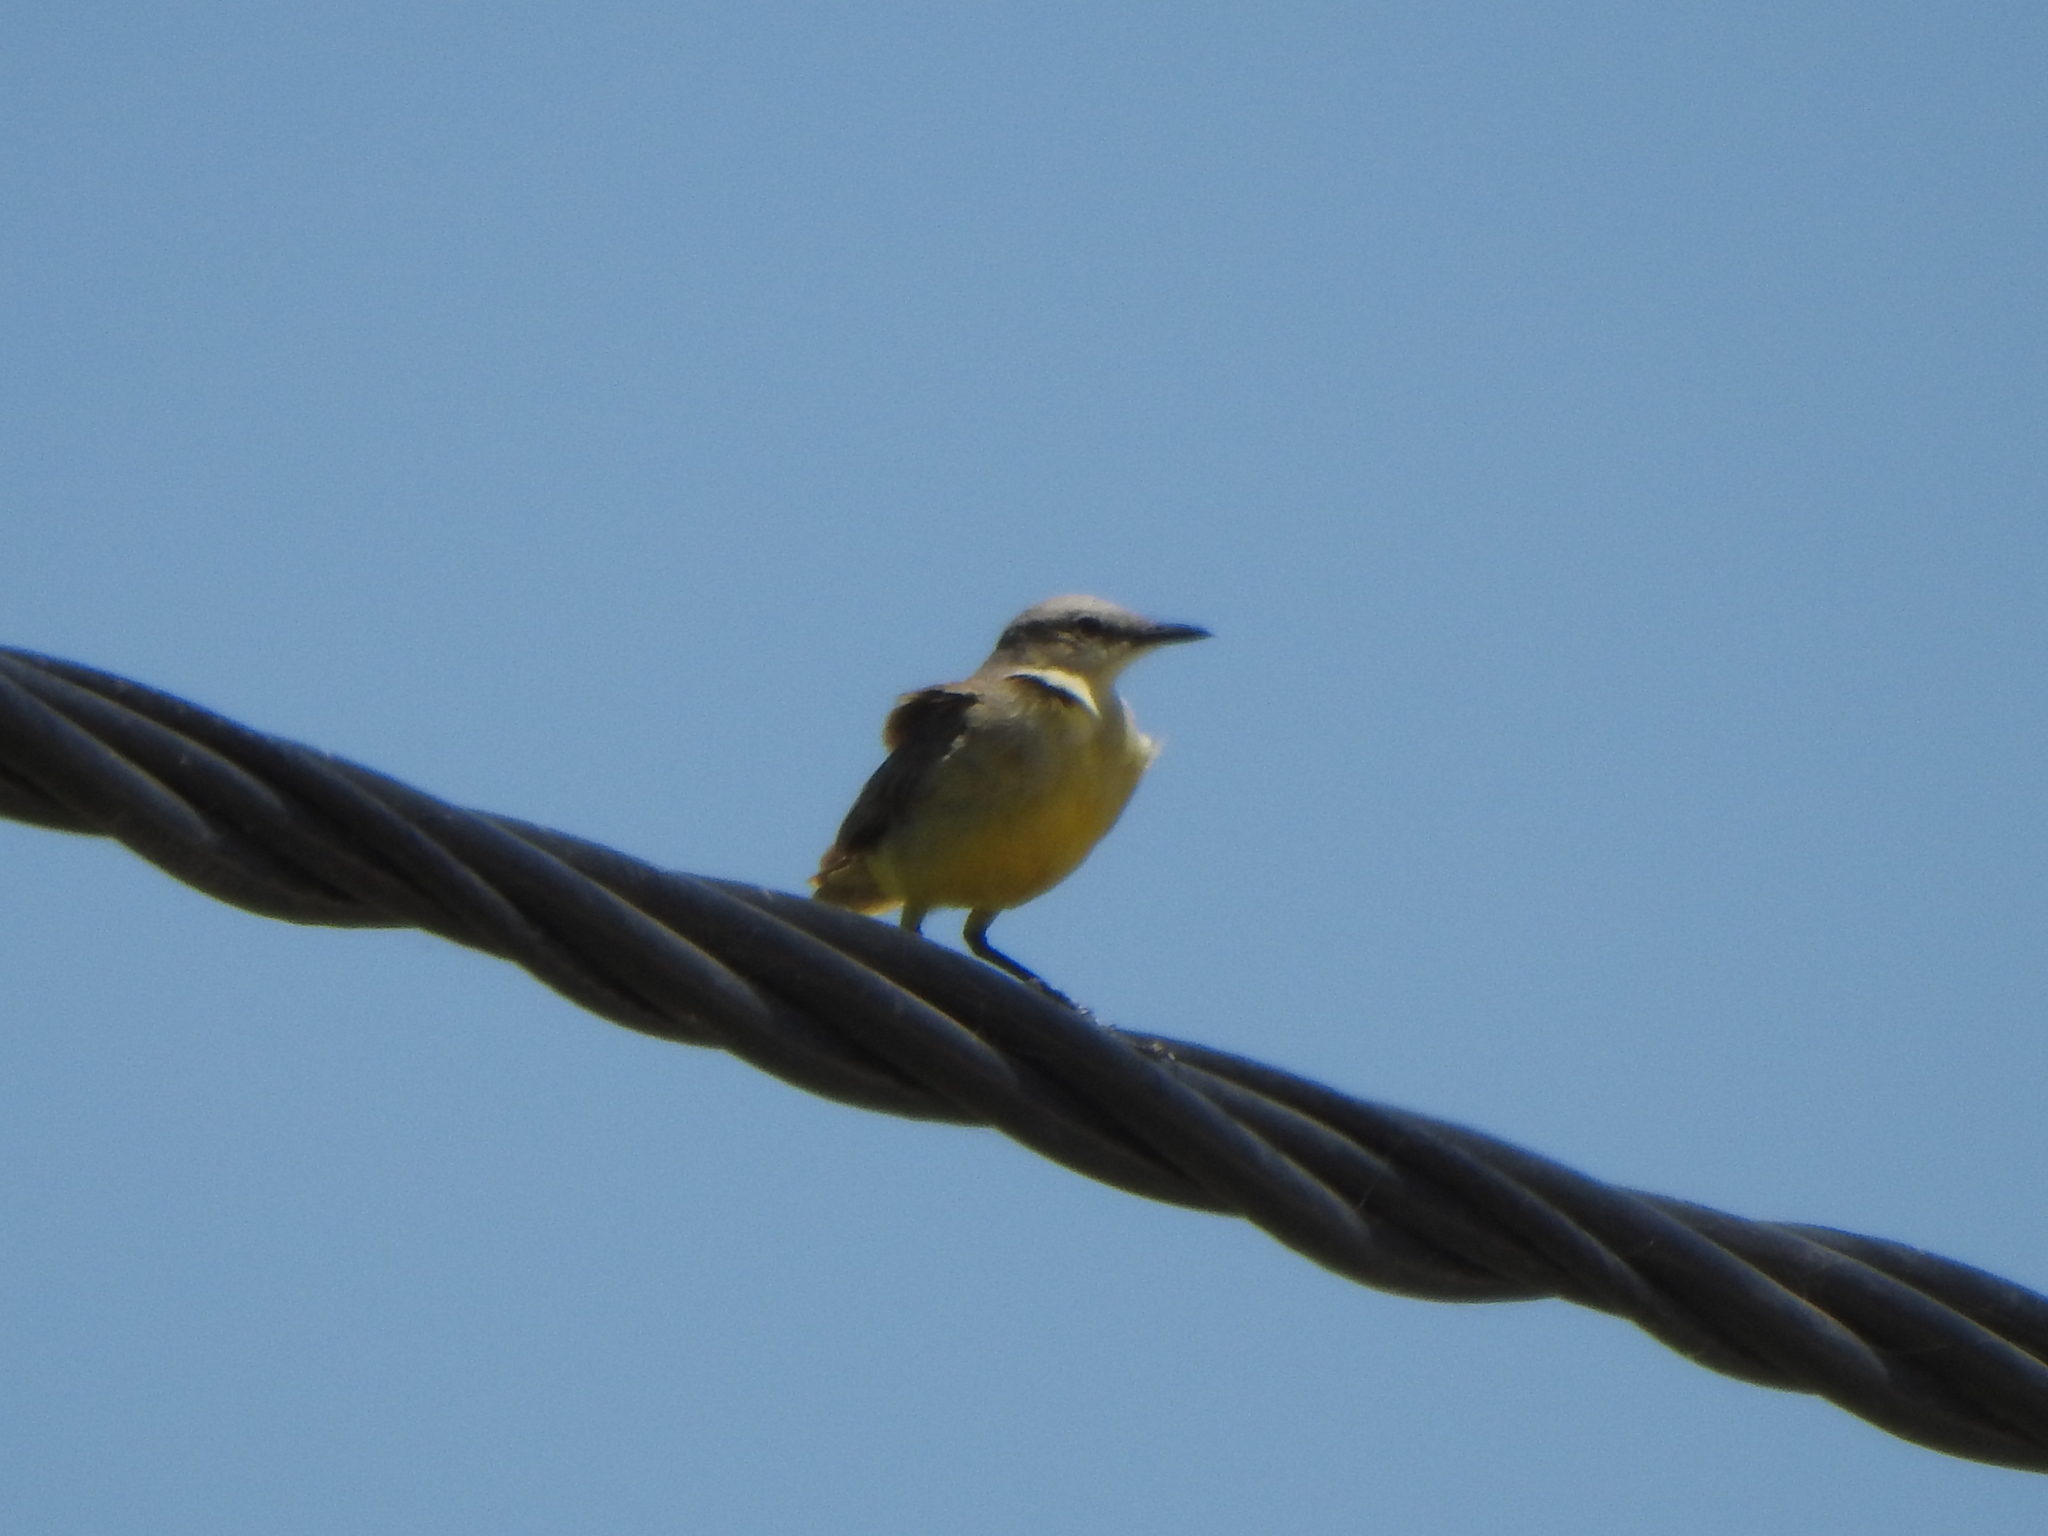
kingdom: Animalia
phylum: Chordata
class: Aves
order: Passeriformes
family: Tyrannidae
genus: Machetornis
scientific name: Machetornis rixosa
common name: Cattle tyrant
